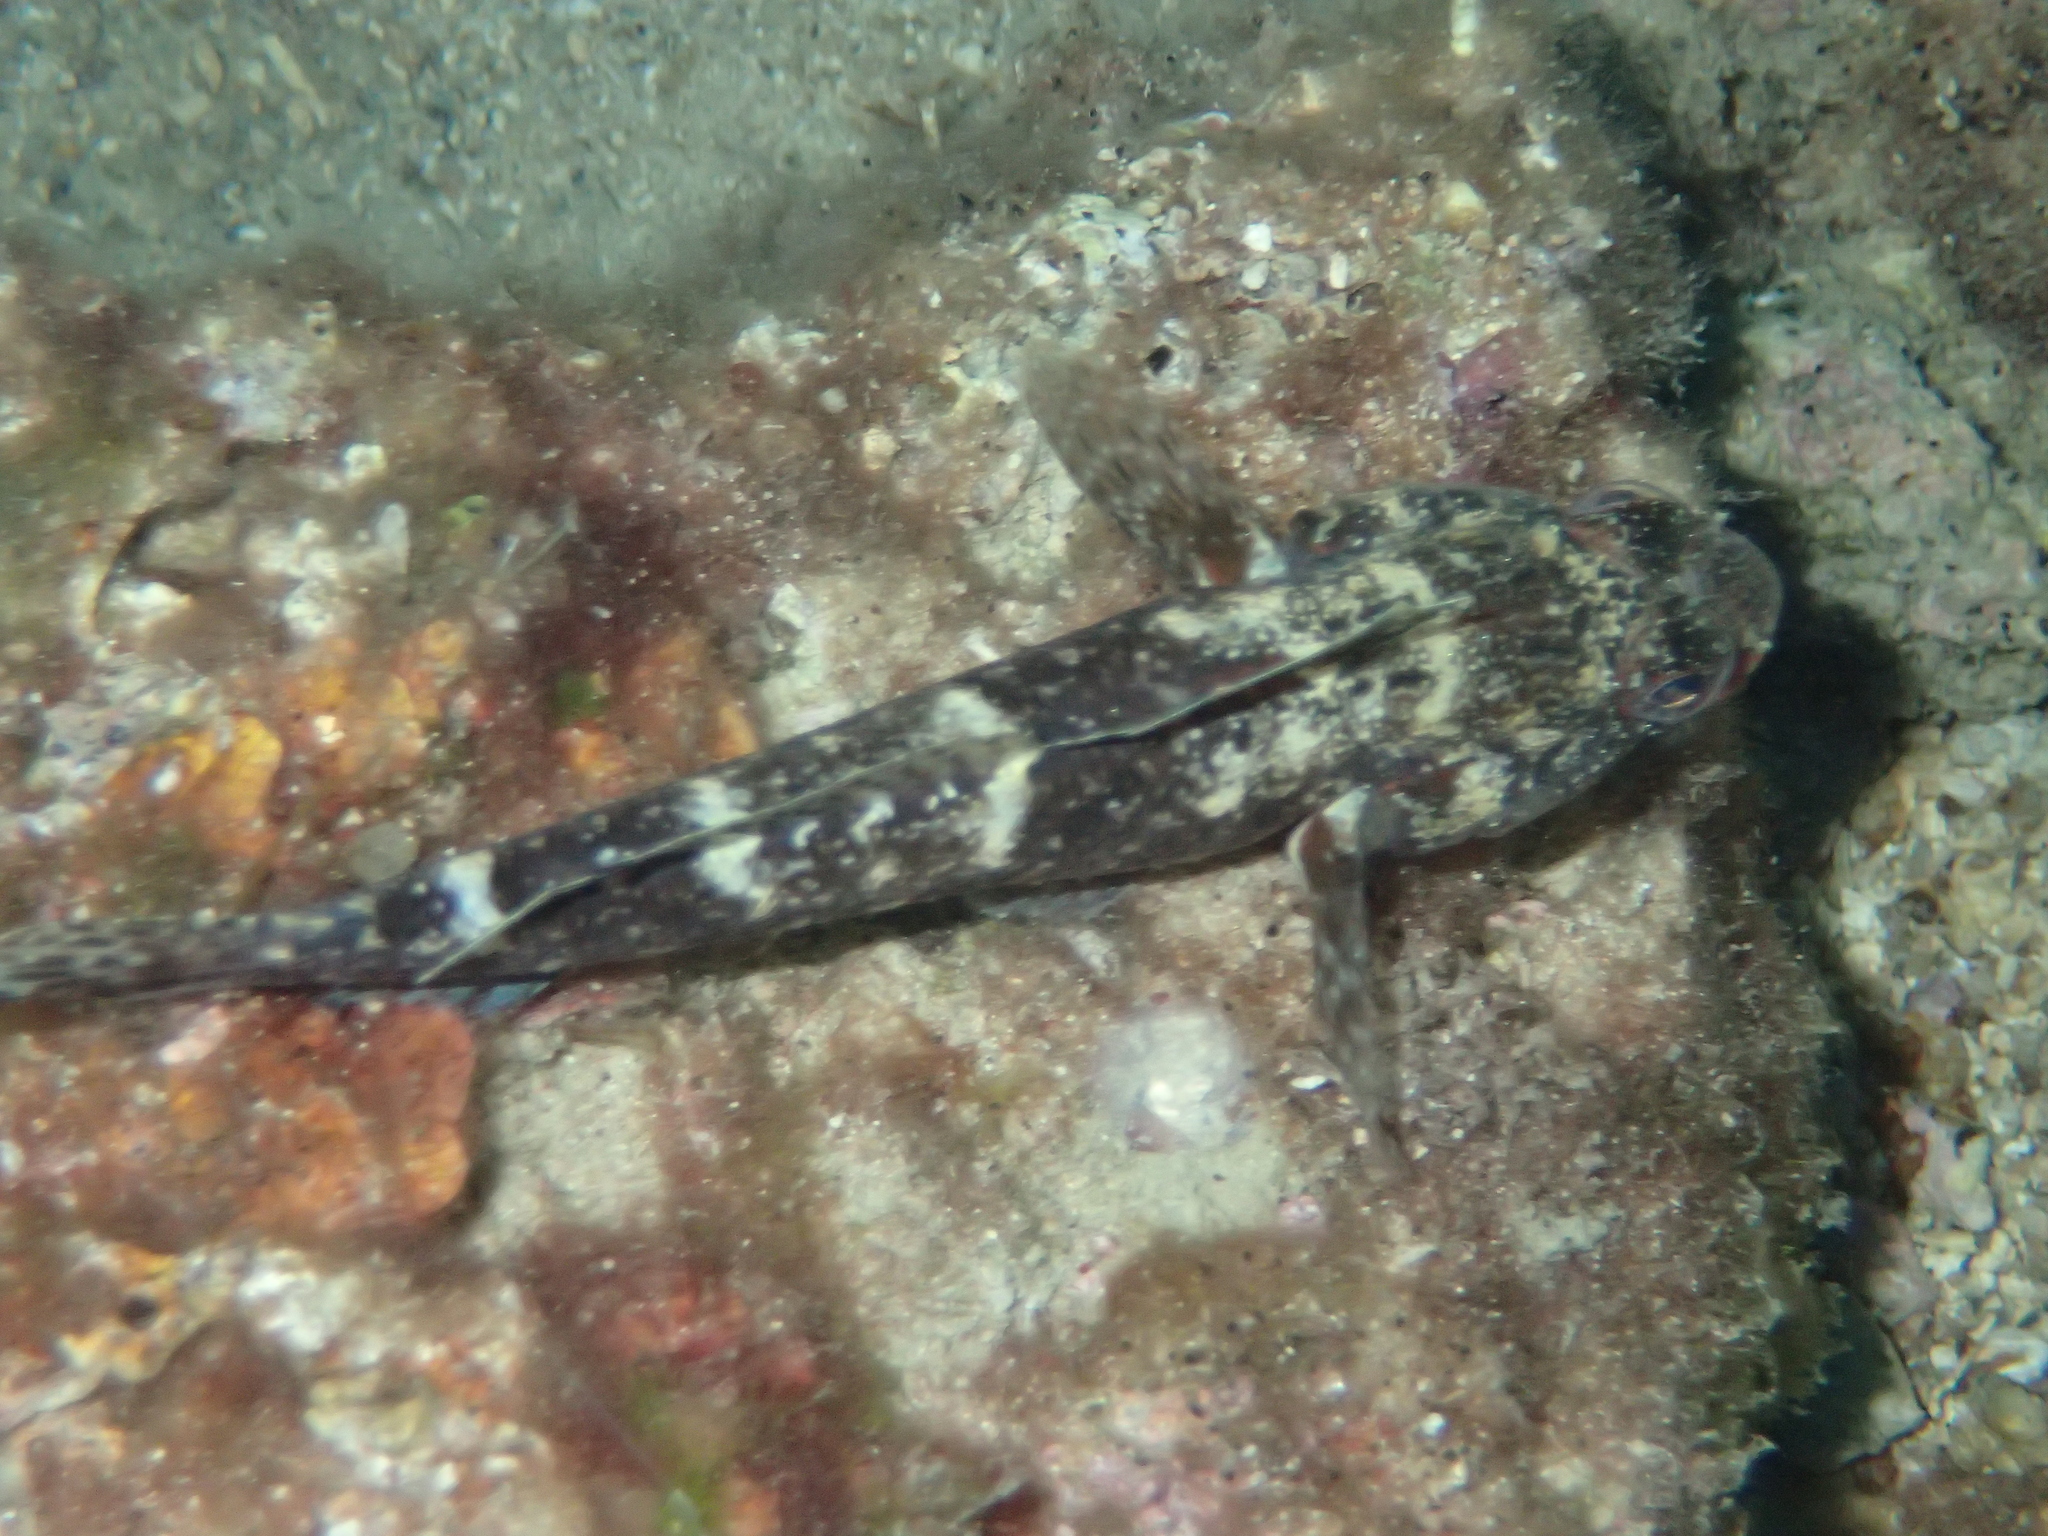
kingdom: Animalia
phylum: Chordata
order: Perciformes
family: Gobiidae
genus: Gobius
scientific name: Gobius cruentatus
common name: Red-mouthed goby
